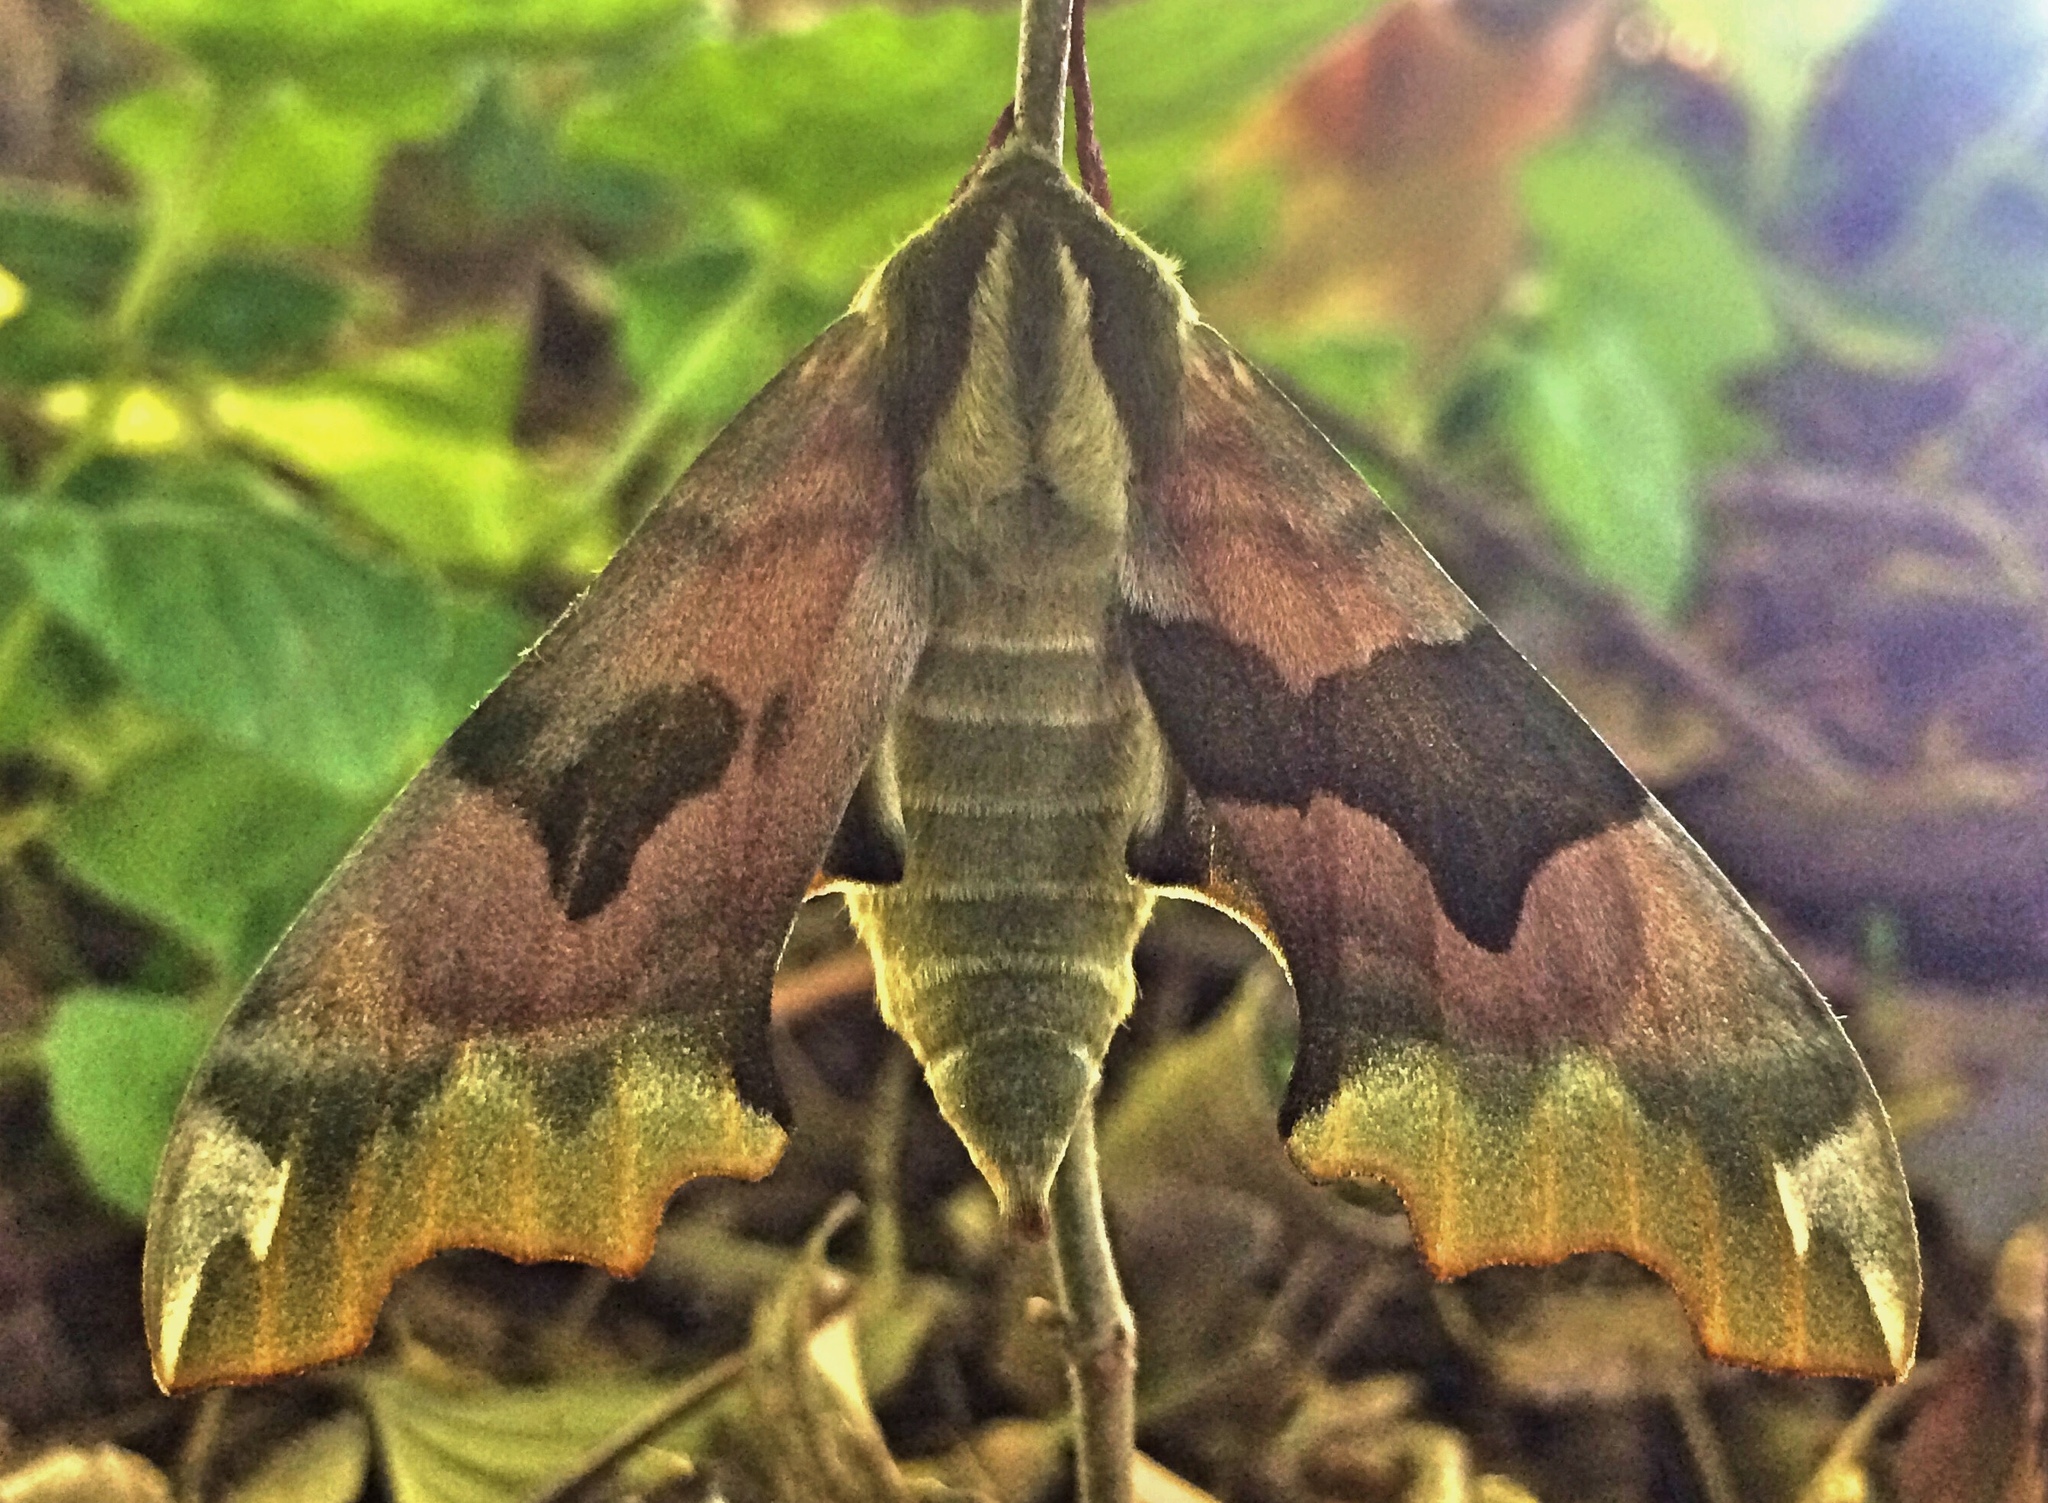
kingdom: Animalia
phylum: Arthropoda
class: Insecta
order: Lepidoptera
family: Sphingidae
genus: Mimas
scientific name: Mimas tiliae
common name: Lime hawk-moth
